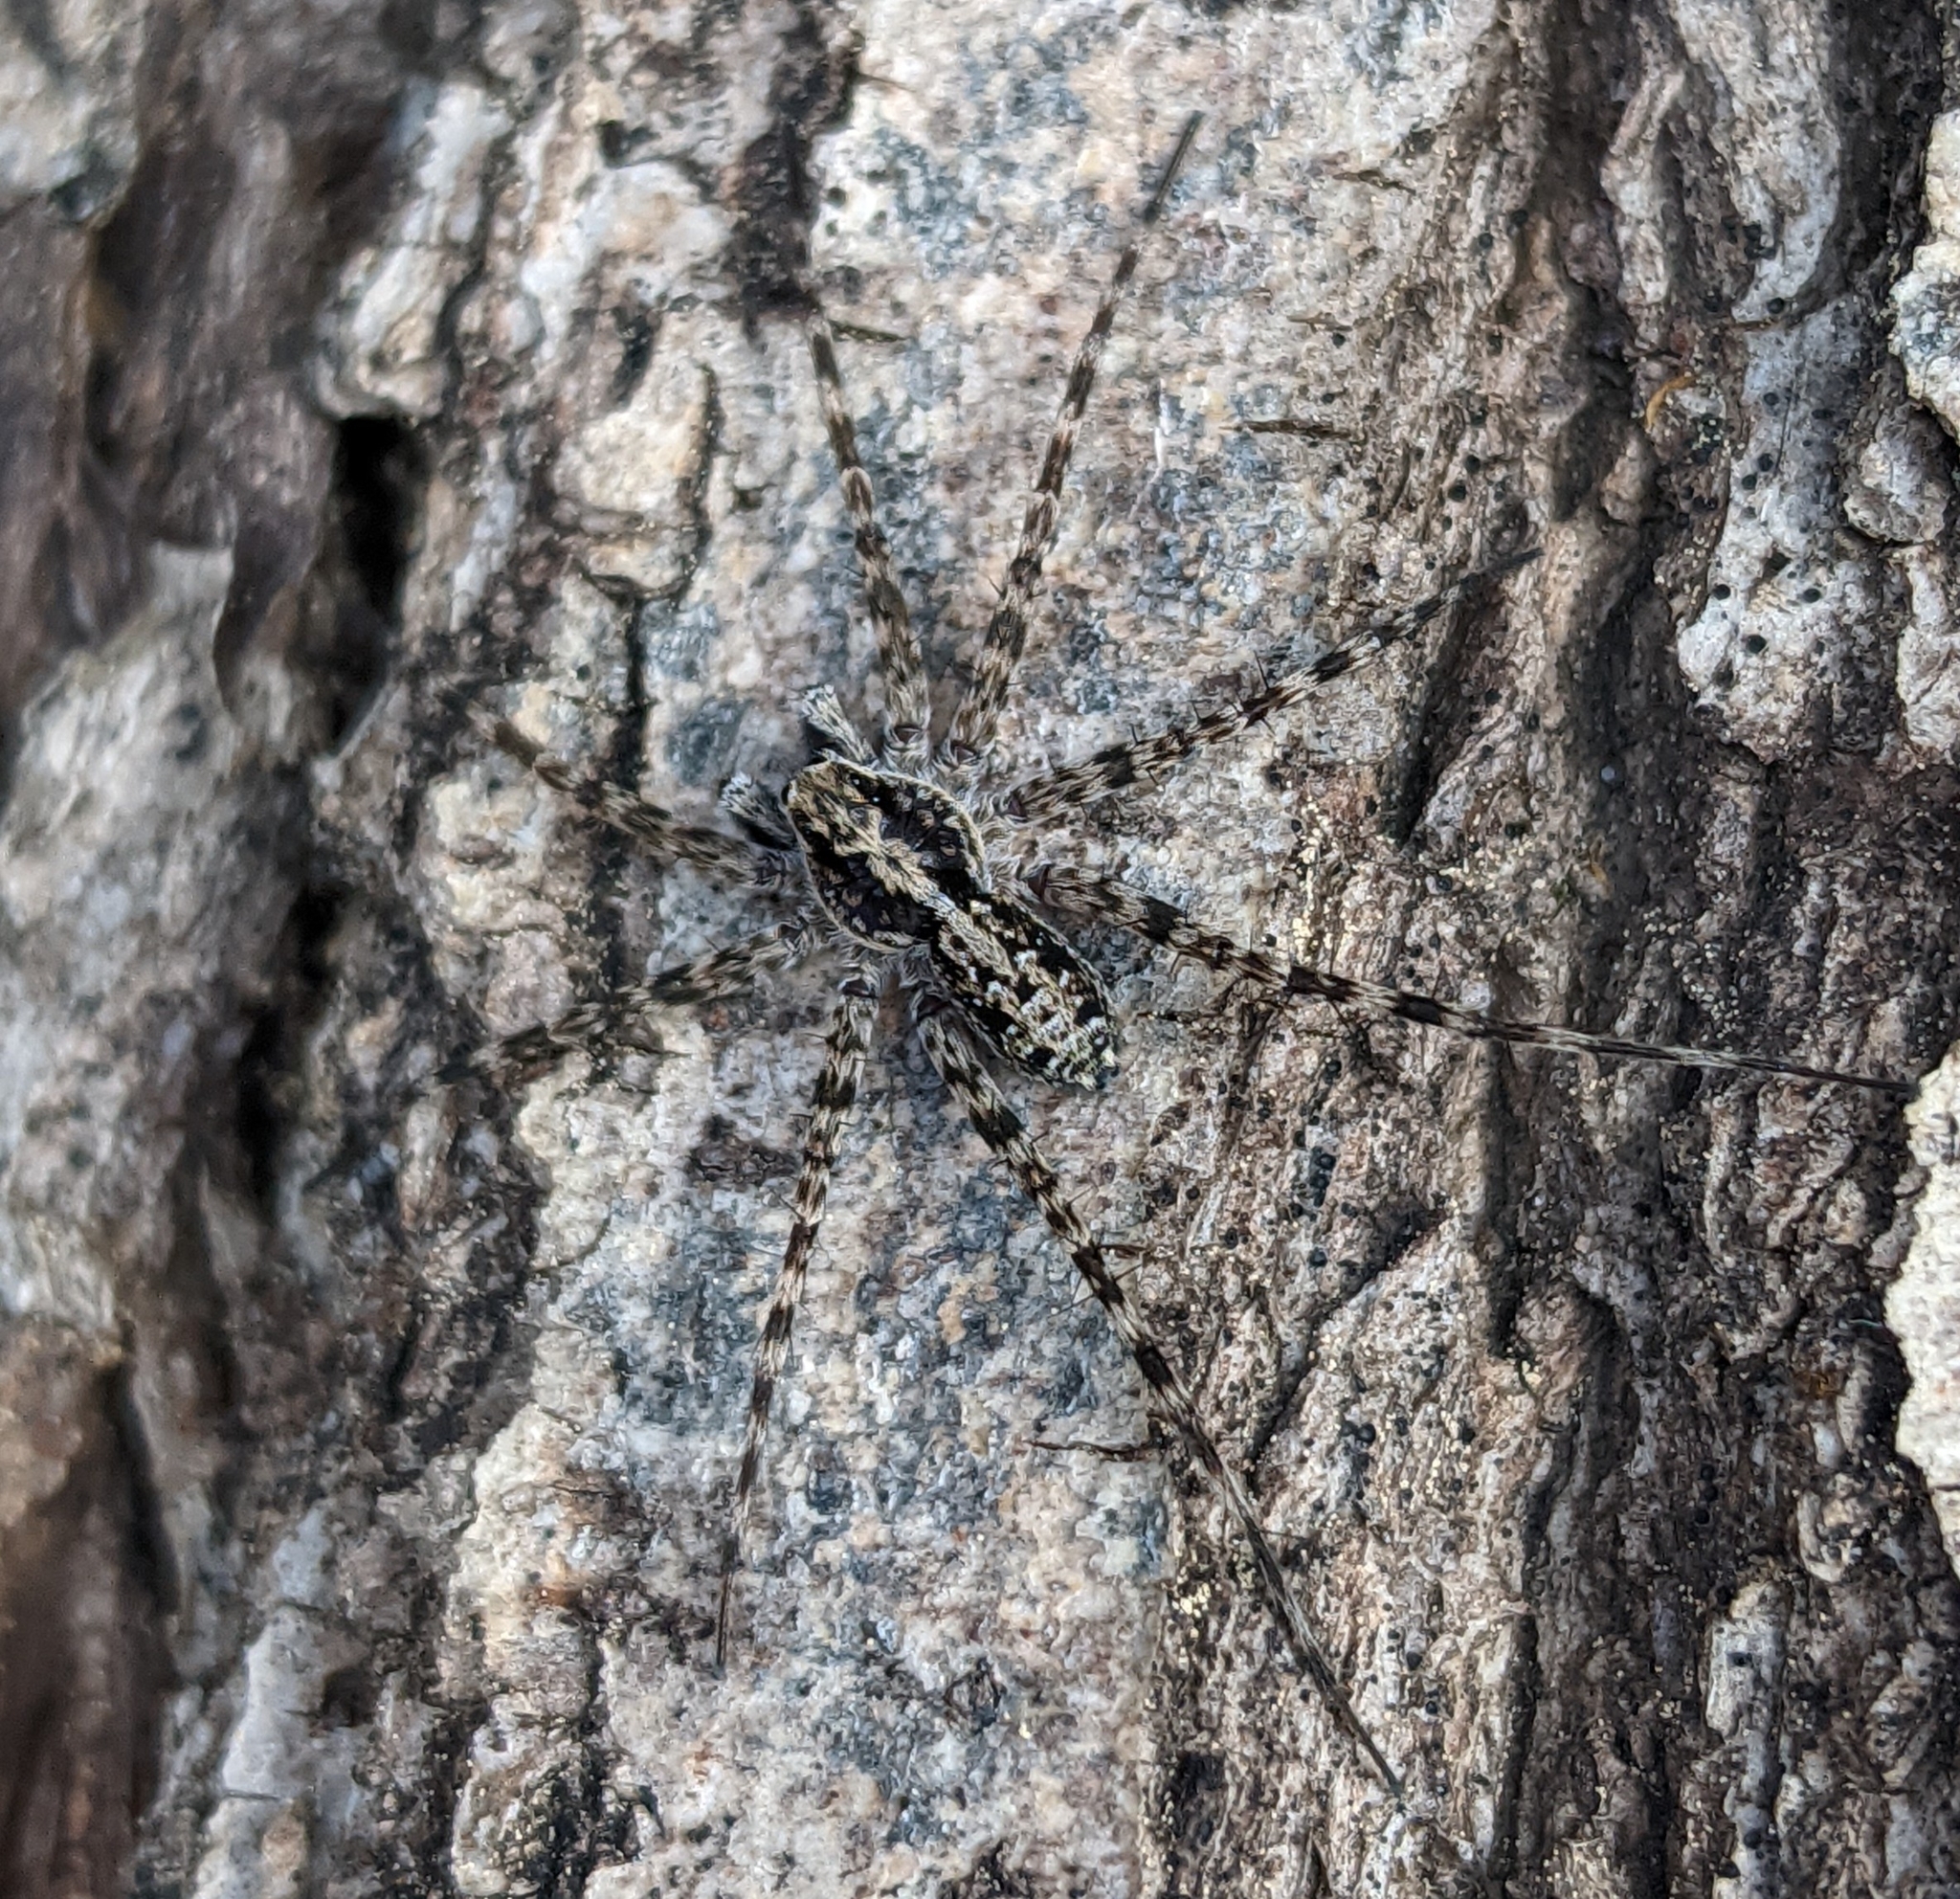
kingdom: Animalia
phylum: Arthropoda
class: Arachnida
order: Araneae
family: Lycosidae
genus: Acantholycosa
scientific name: Acantholycosa lignaria
